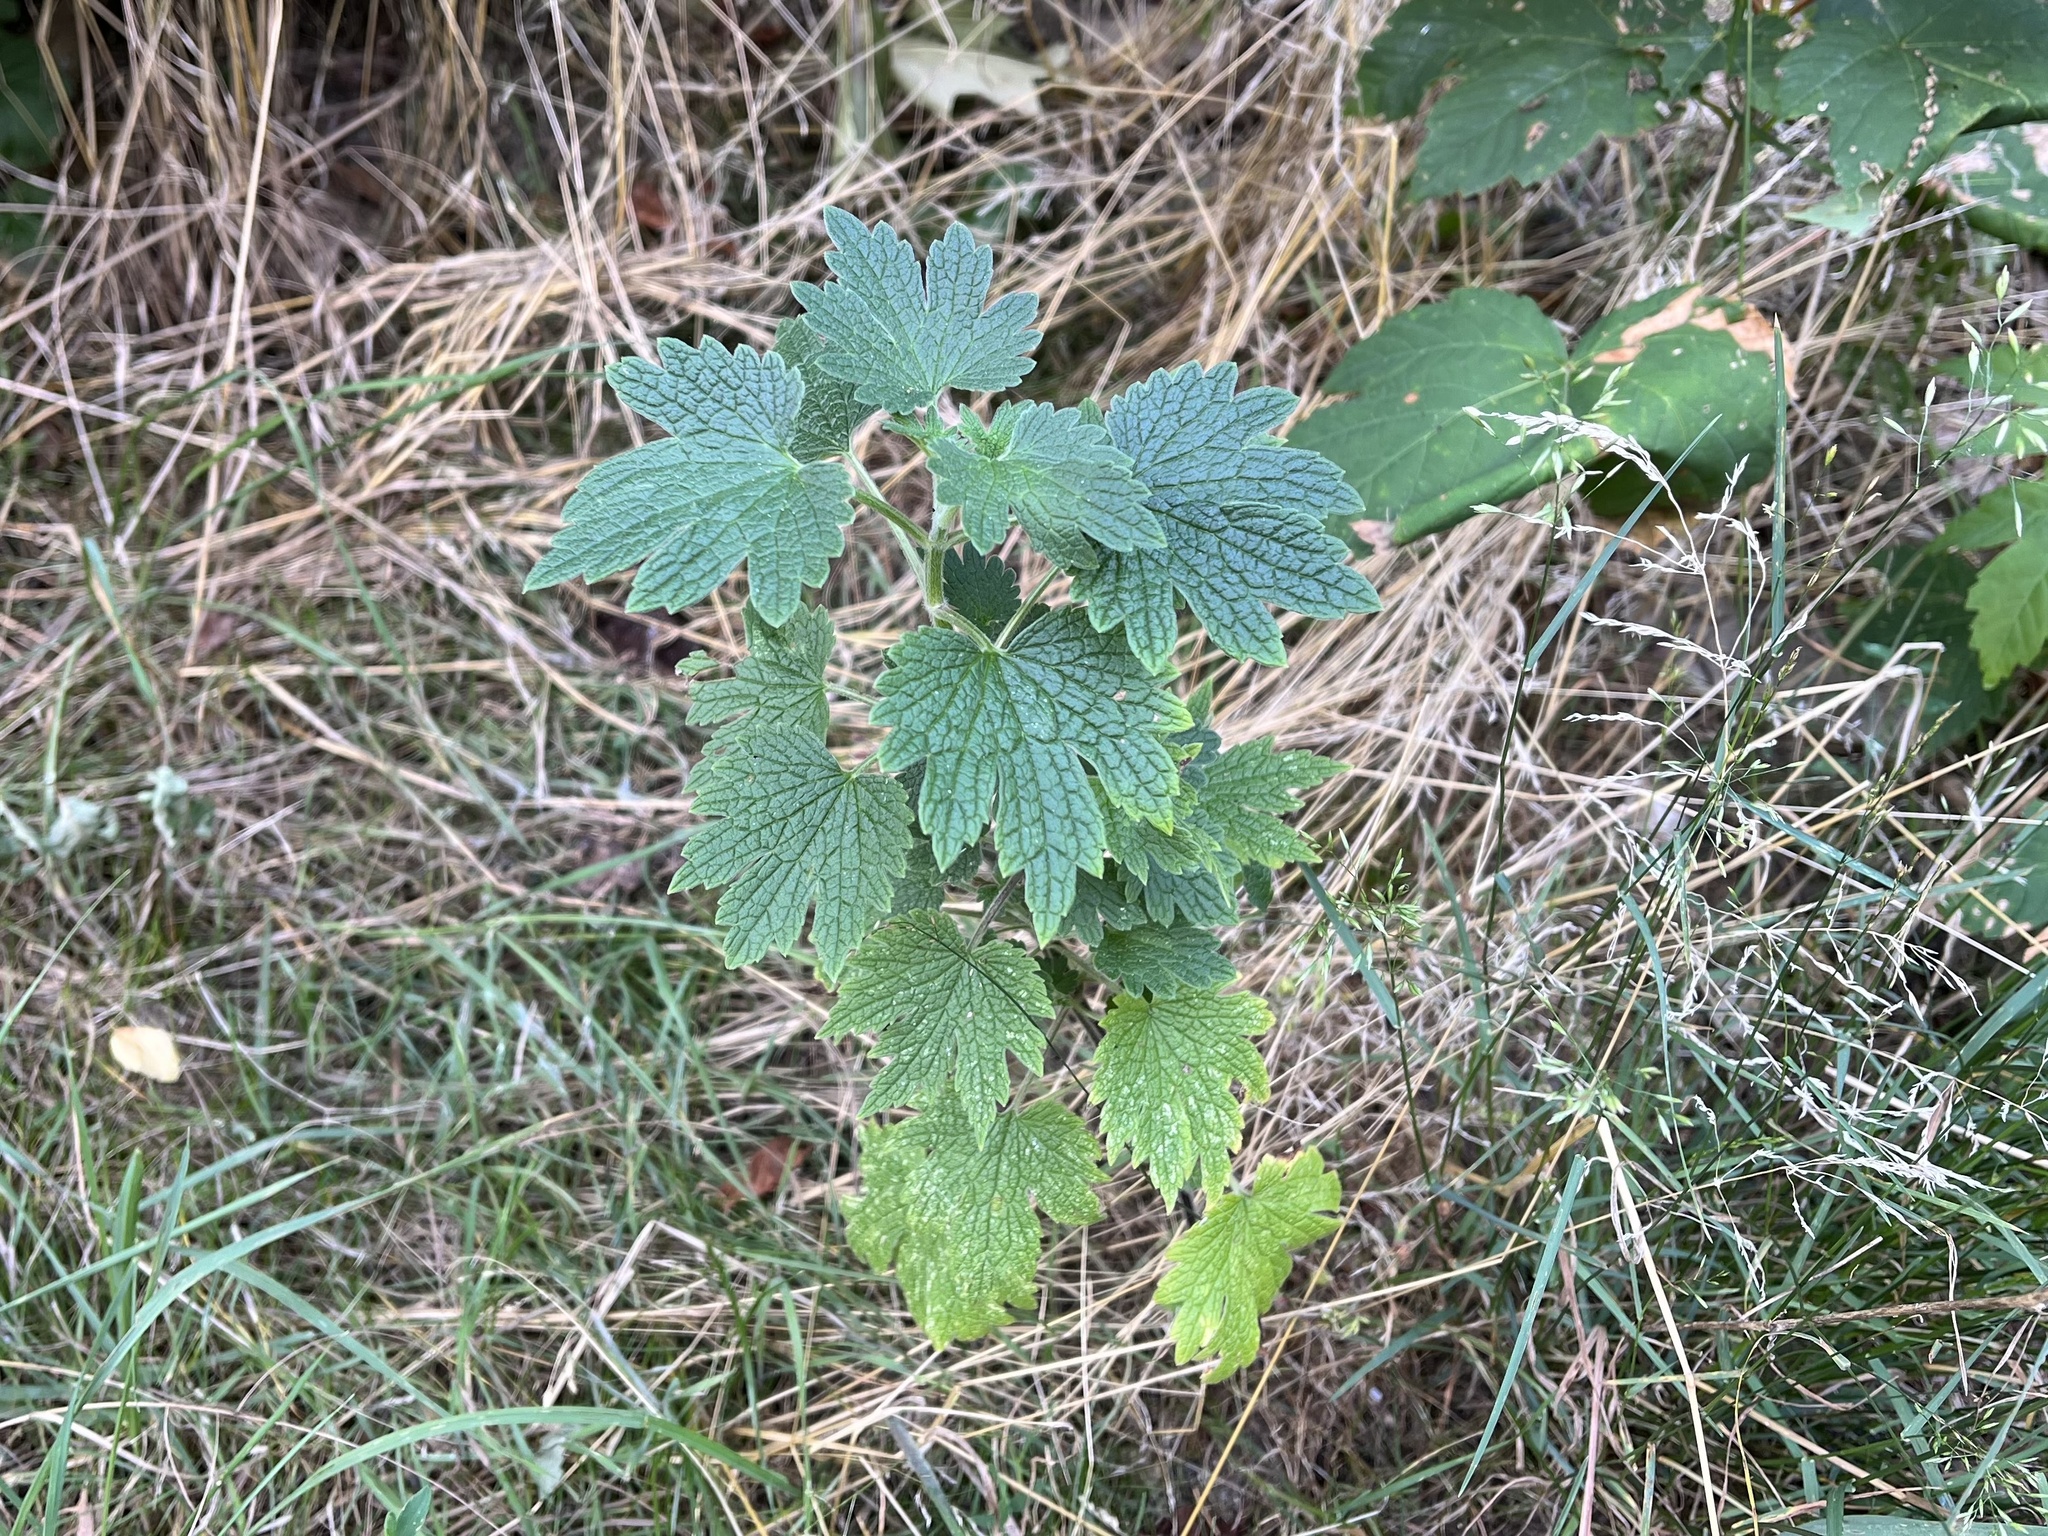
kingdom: Plantae
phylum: Tracheophyta
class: Magnoliopsida
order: Lamiales
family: Lamiaceae
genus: Leonurus
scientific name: Leonurus cardiaca
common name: Motherwort
